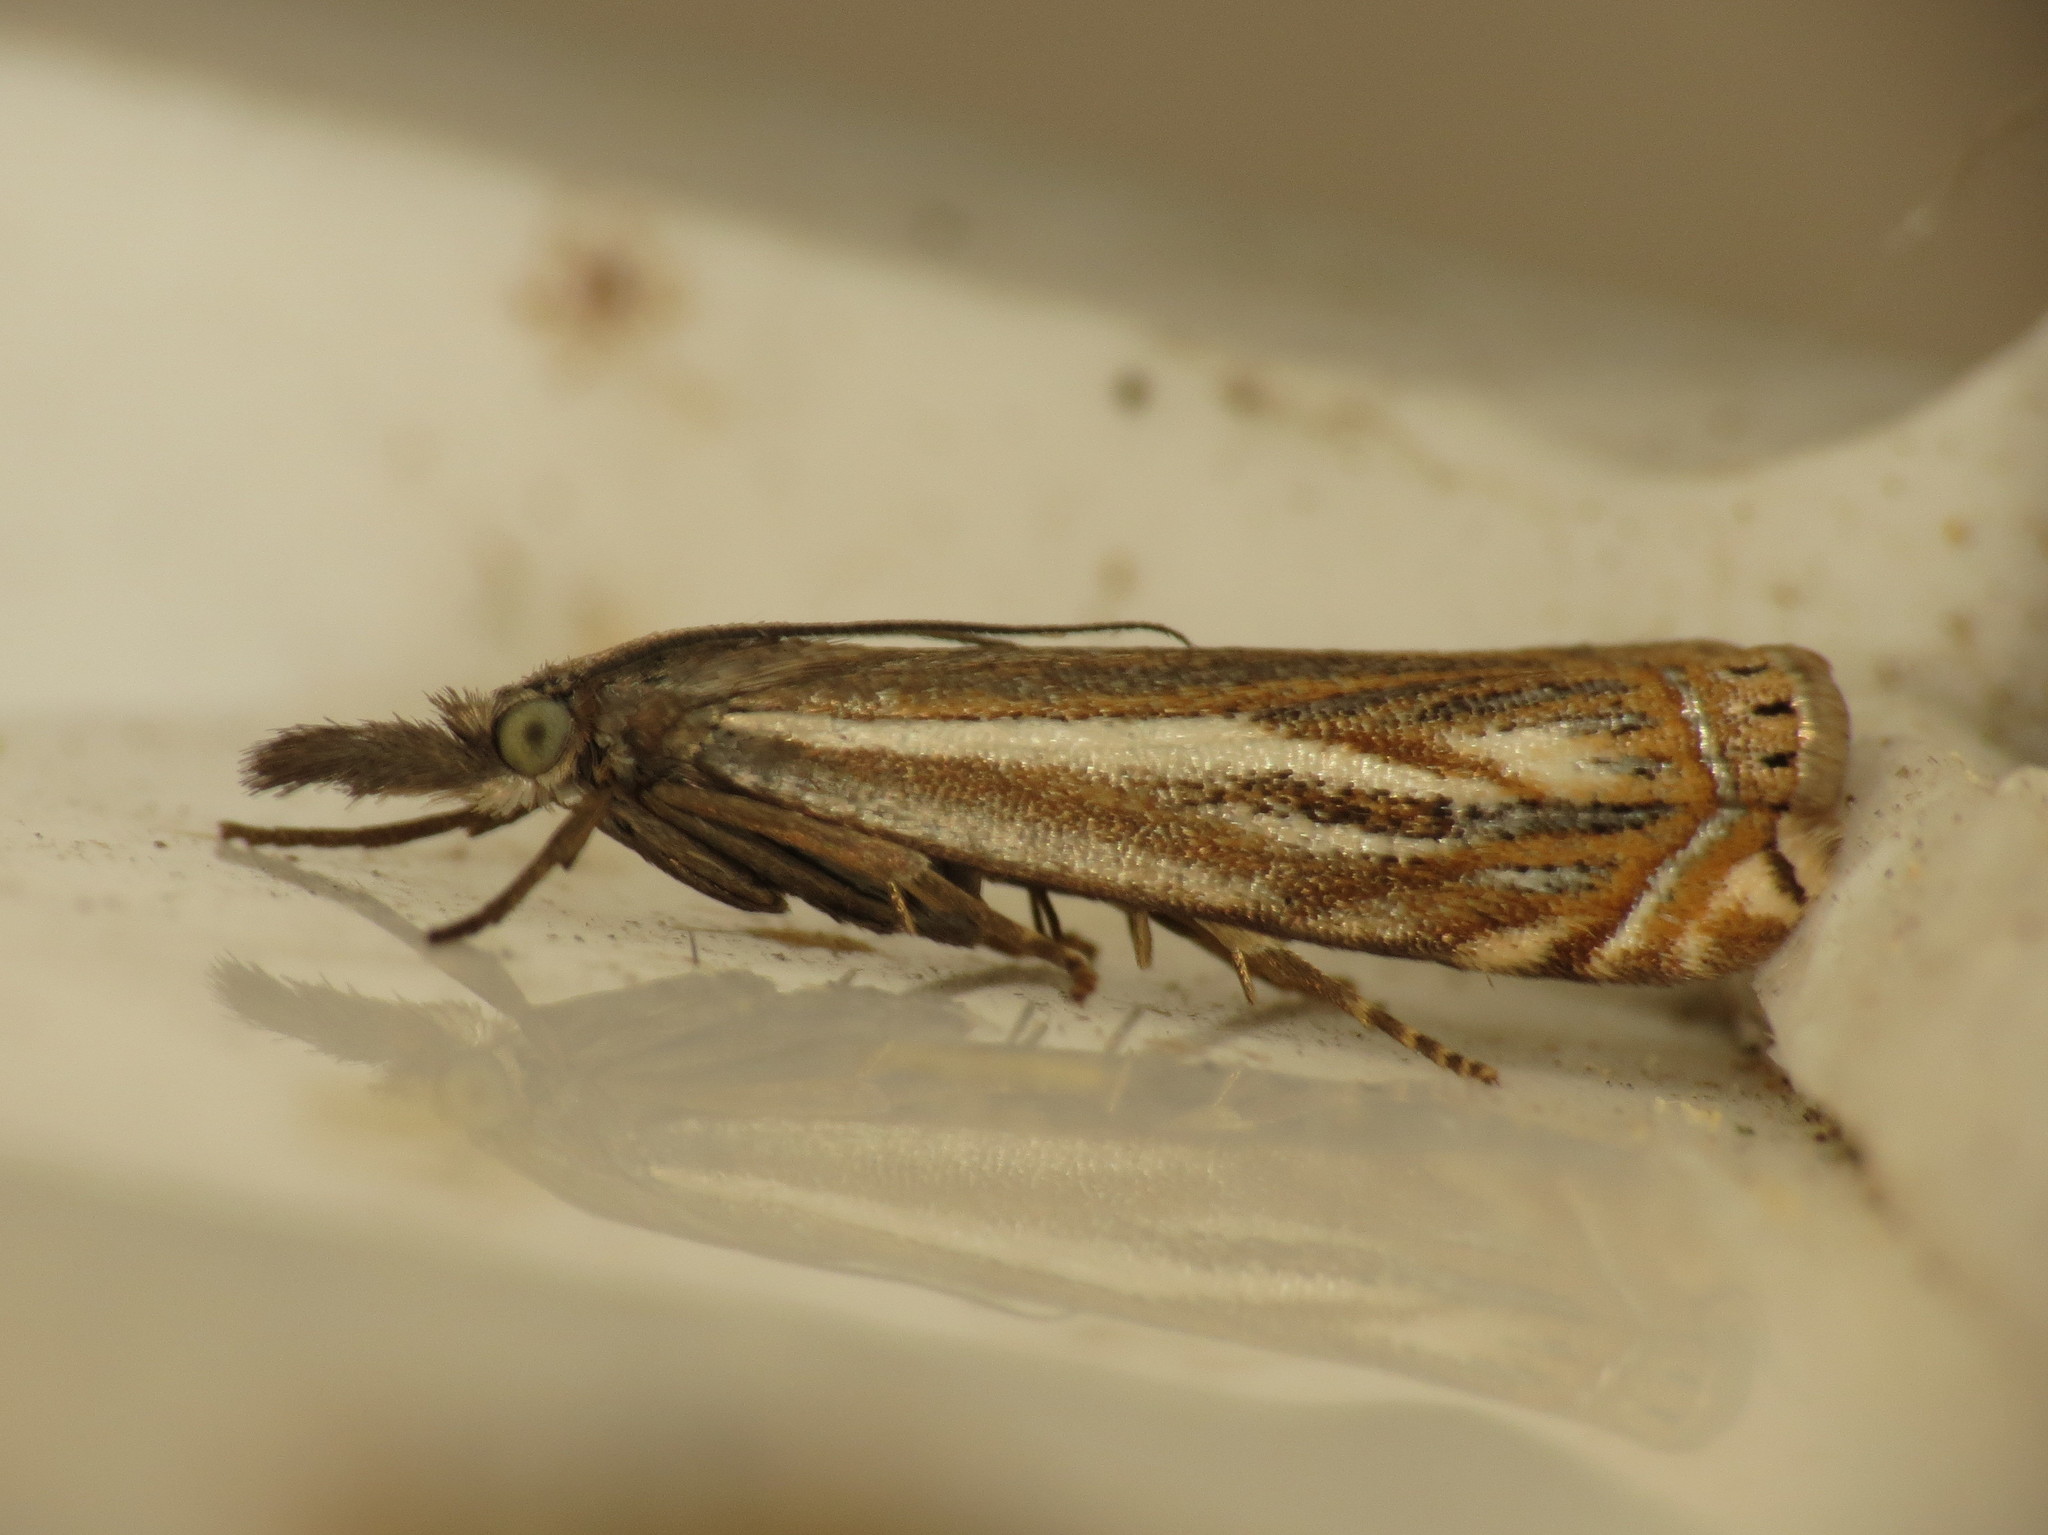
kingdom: Animalia
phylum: Arthropoda
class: Insecta
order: Lepidoptera
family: Crambidae
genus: Crambus
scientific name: Crambus nemorella
